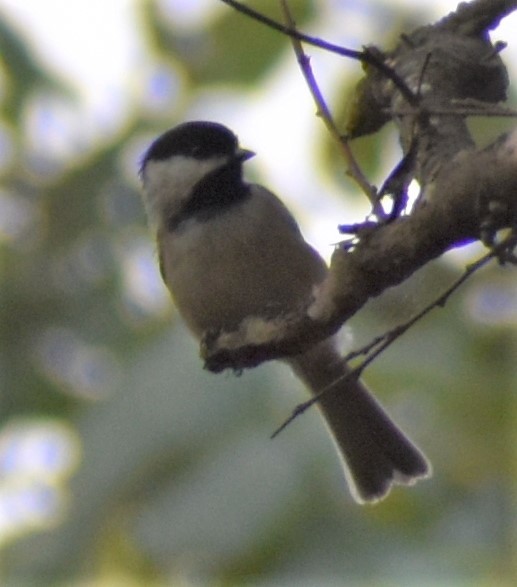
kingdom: Animalia
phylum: Chordata
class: Aves
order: Passeriformes
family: Paridae
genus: Poecile
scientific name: Poecile carolinensis
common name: Carolina chickadee
